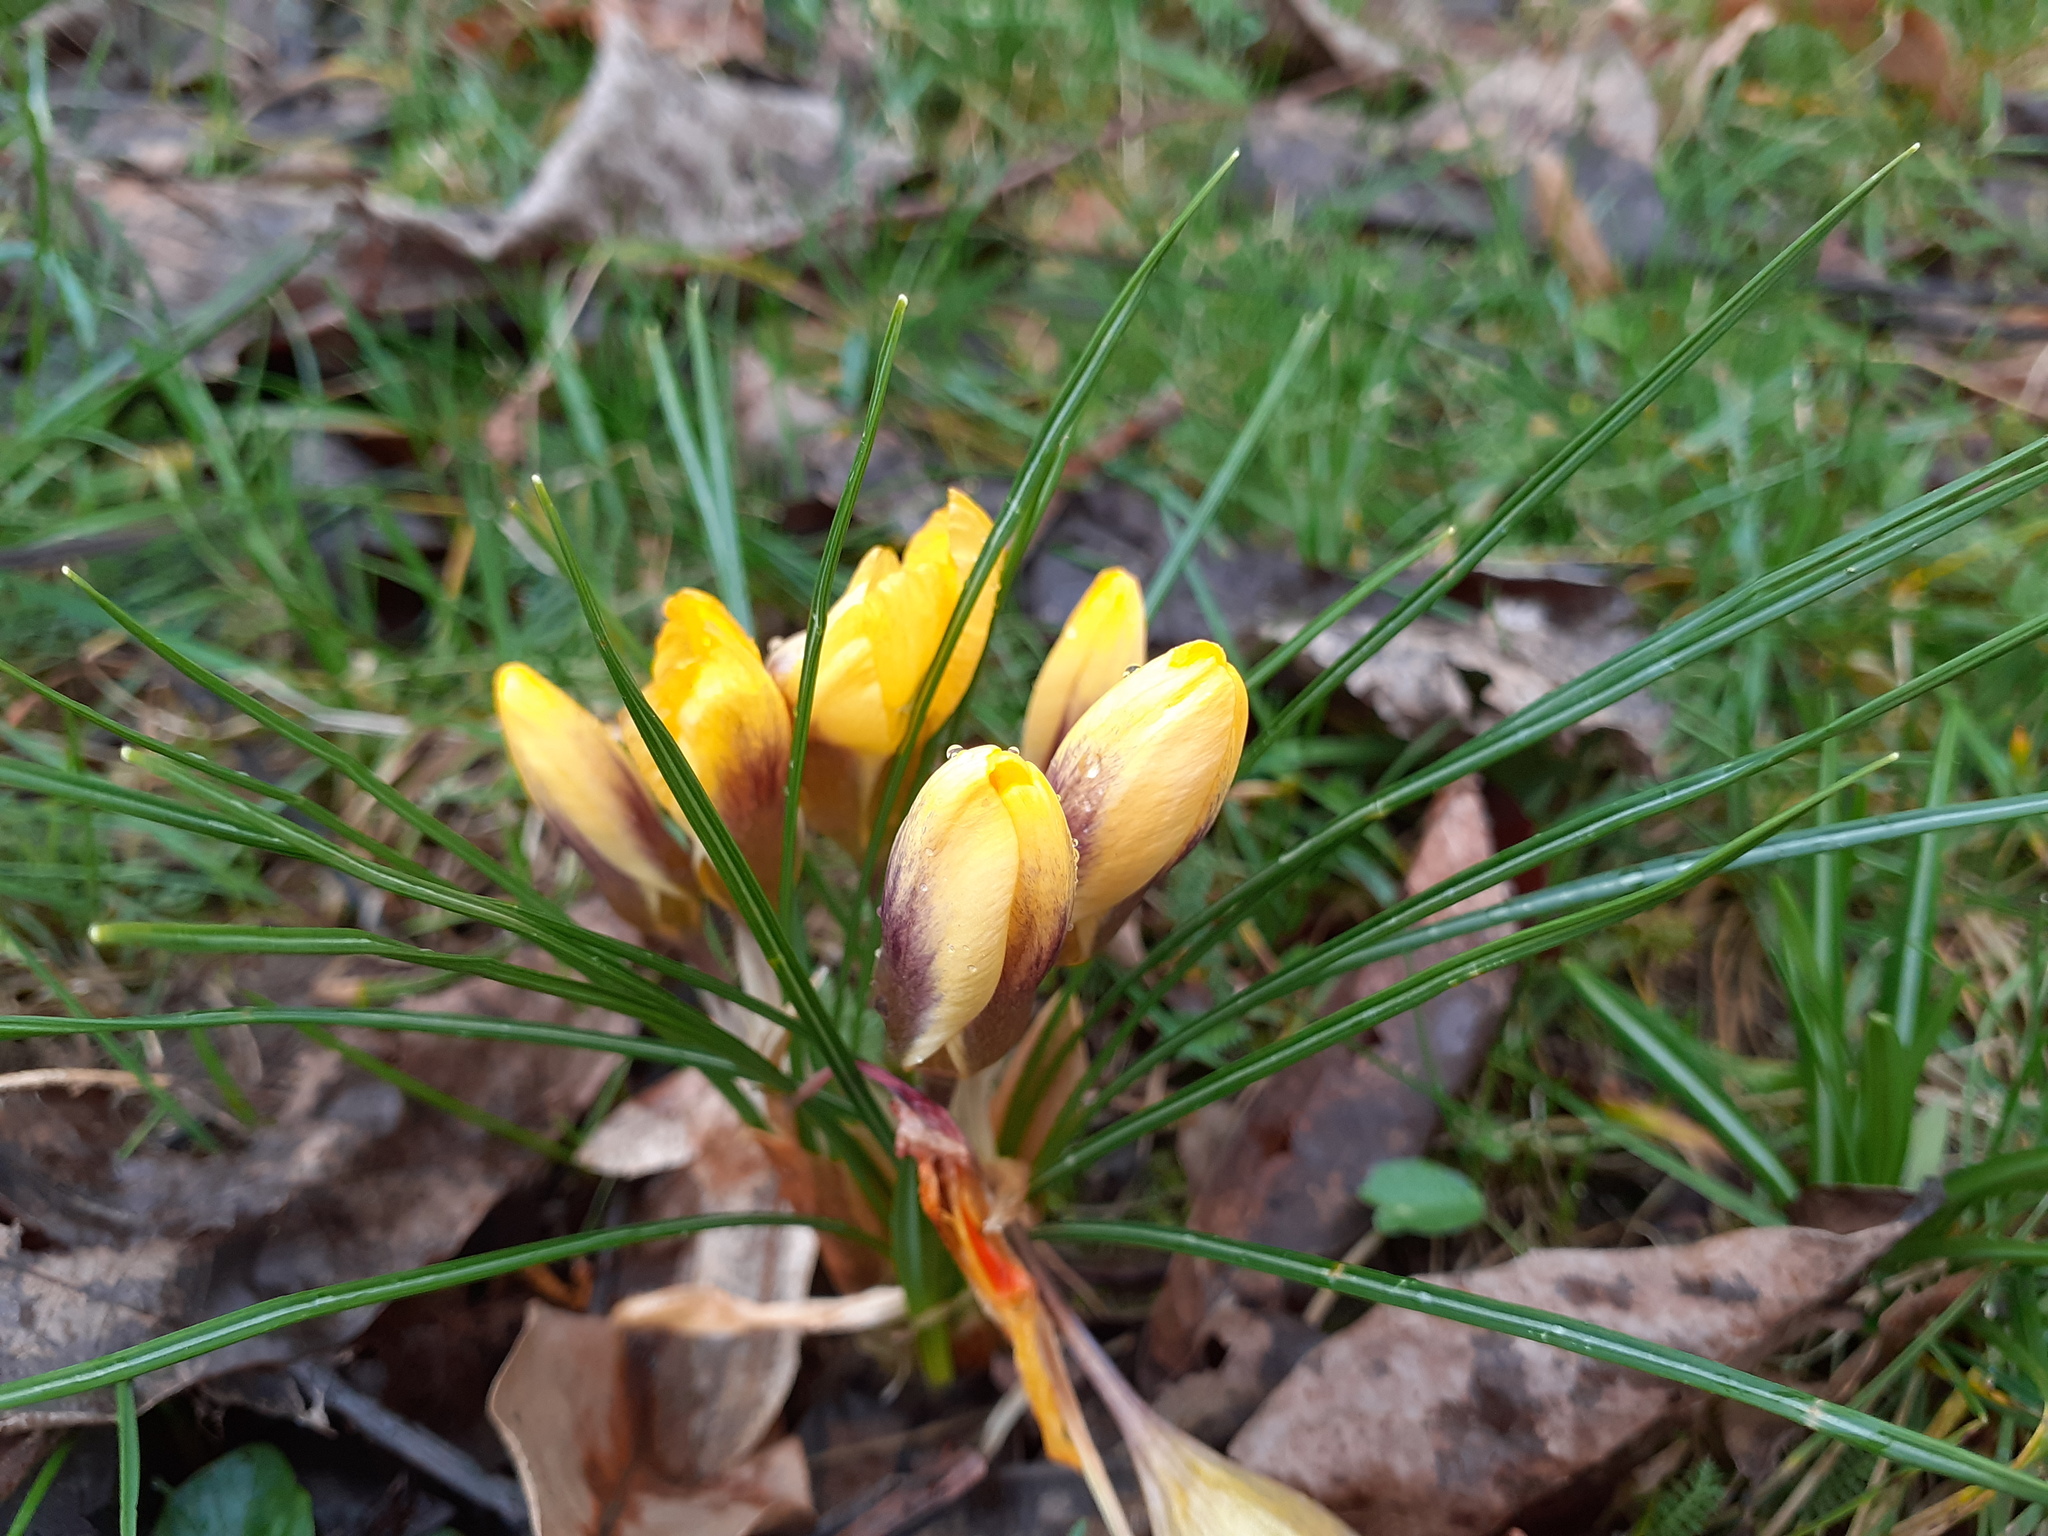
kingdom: Plantae
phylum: Tracheophyta
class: Liliopsida
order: Asparagales
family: Iridaceae
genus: Crocus
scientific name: Crocus chrysanthus
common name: Golden crocus
